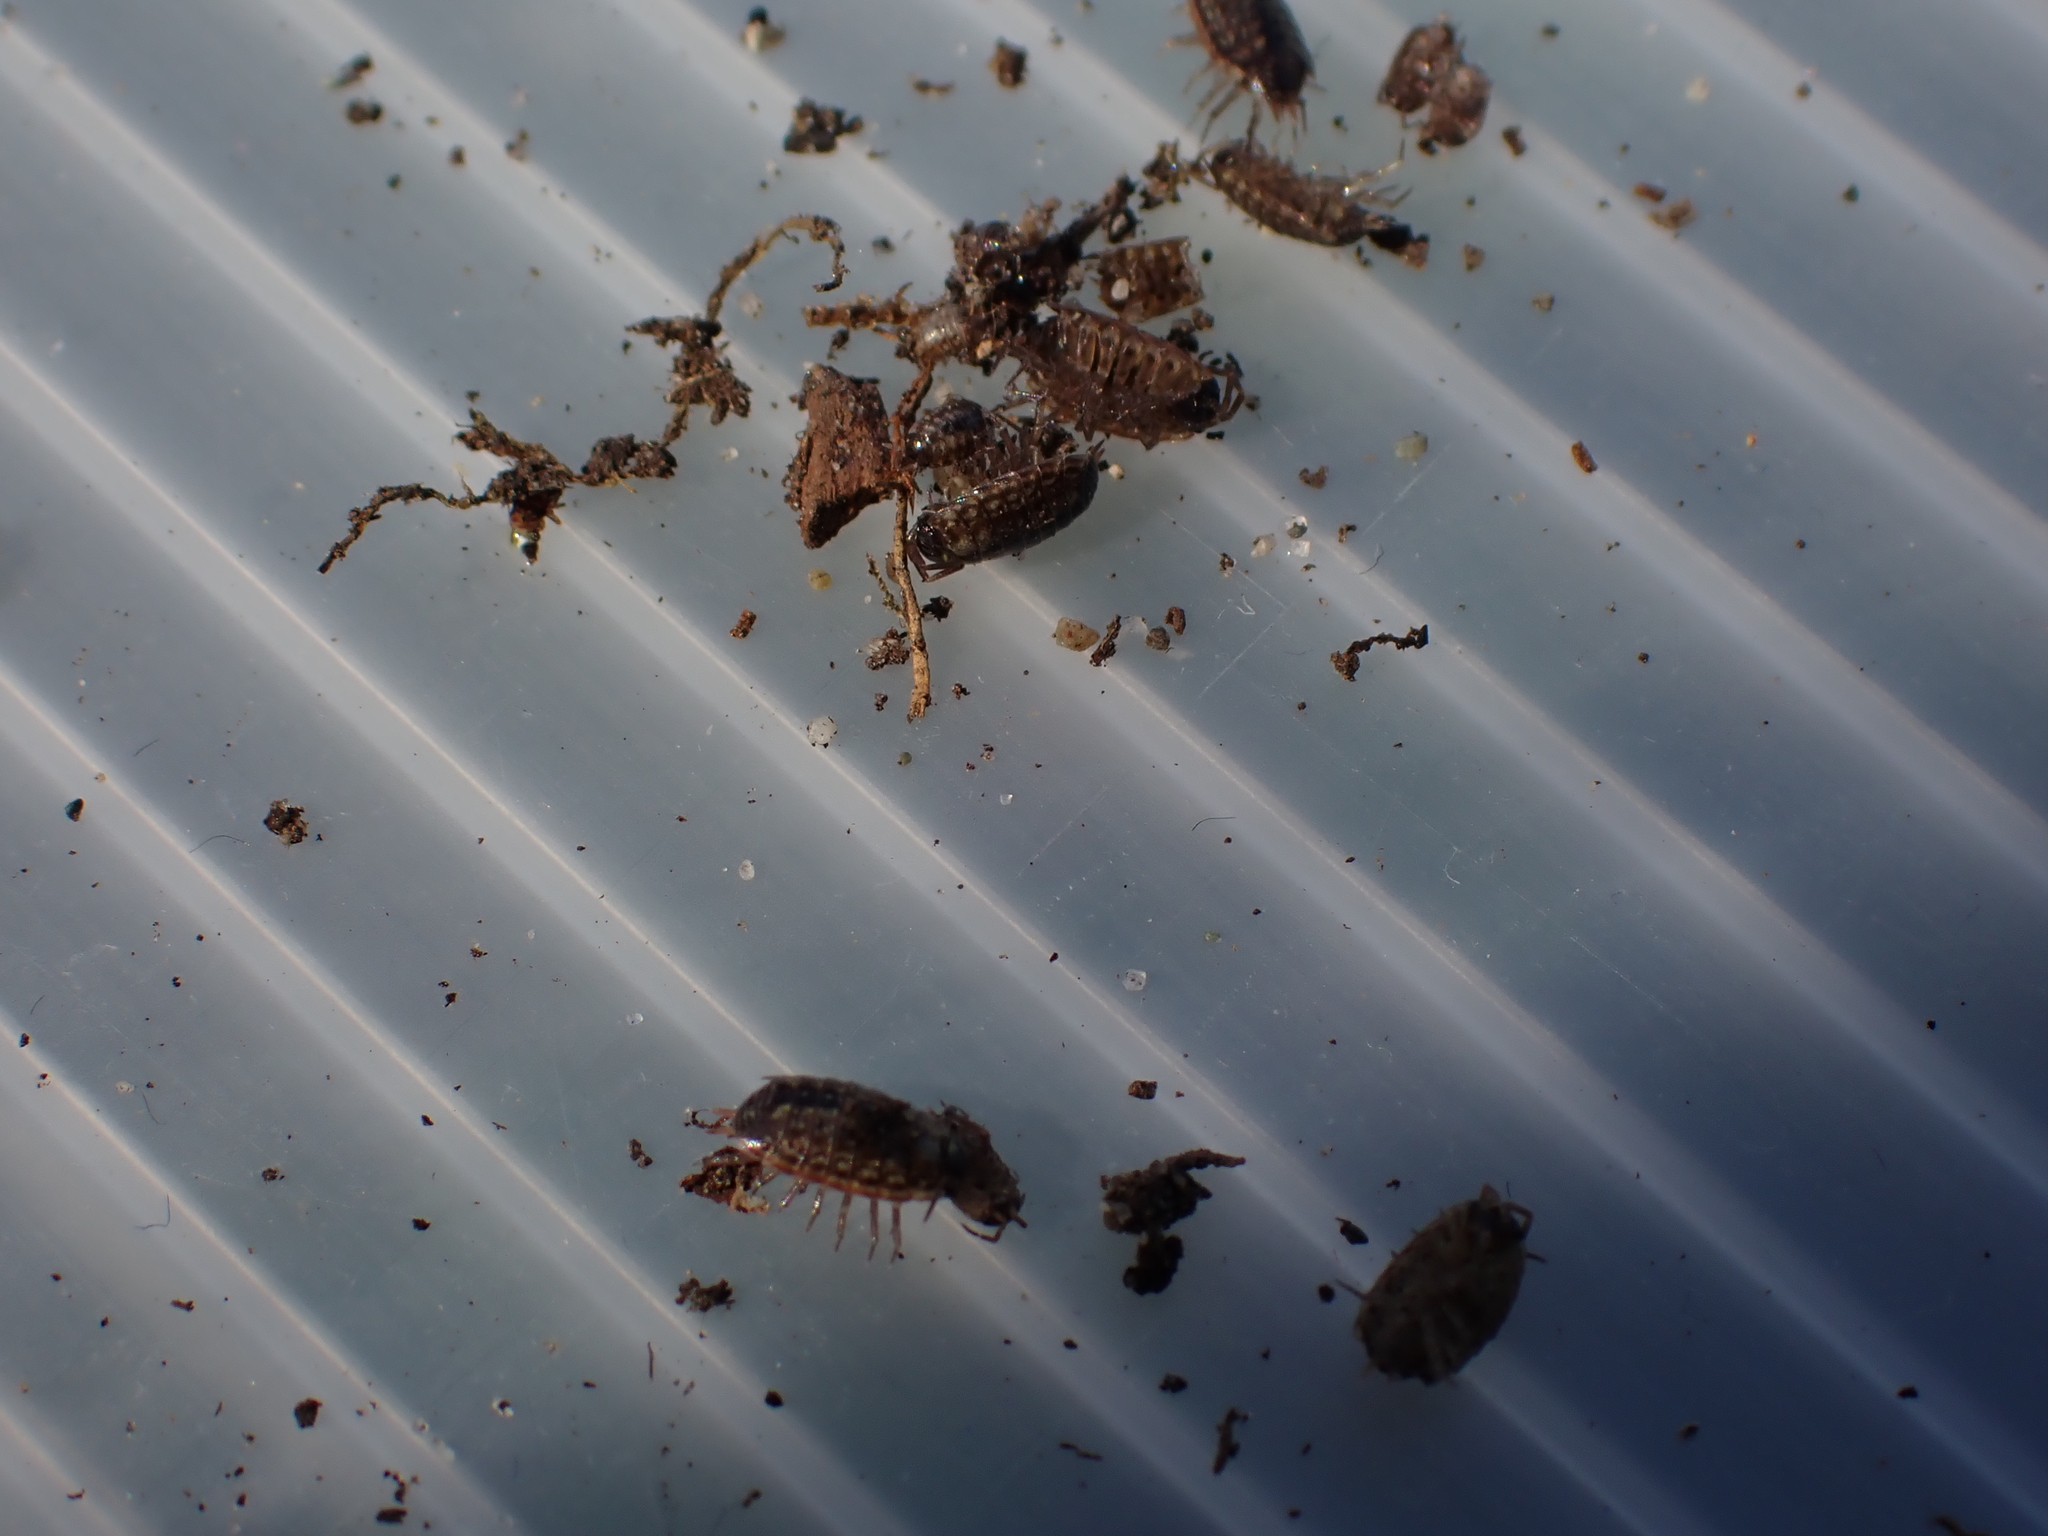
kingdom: Animalia
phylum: Arthropoda
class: Malacostraca
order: Isopoda
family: Philosciidae
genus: Philoscia
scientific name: Philoscia muscorum
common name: Common striped woodlouse
